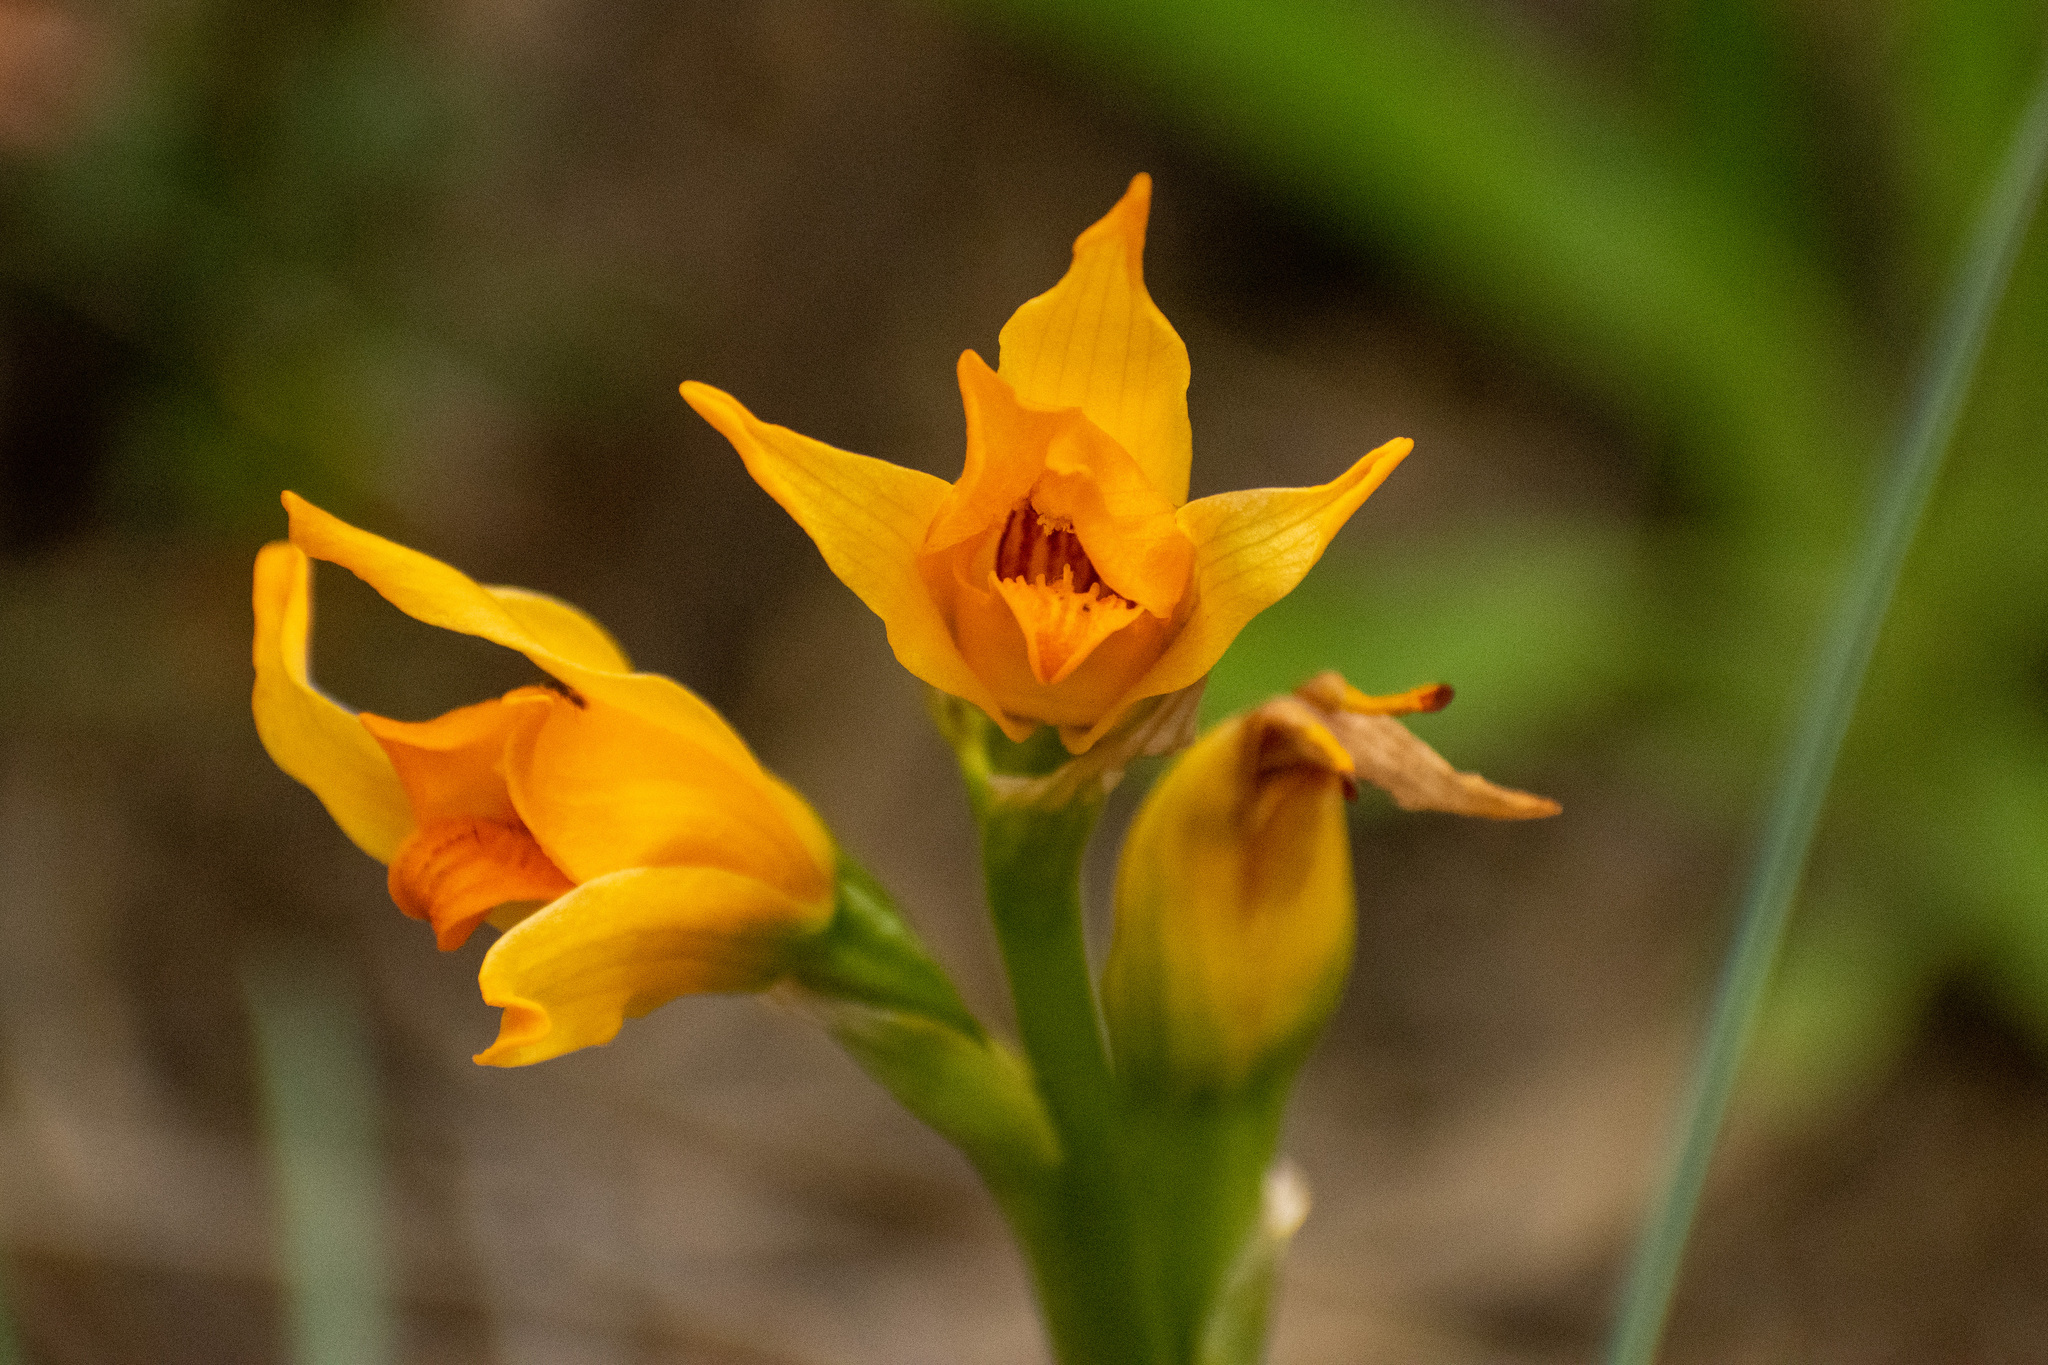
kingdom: Plantae
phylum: Tracheophyta
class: Liliopsida
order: Asparagales
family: Orchidaceae
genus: Chloraea
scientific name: Chloraea alpina
